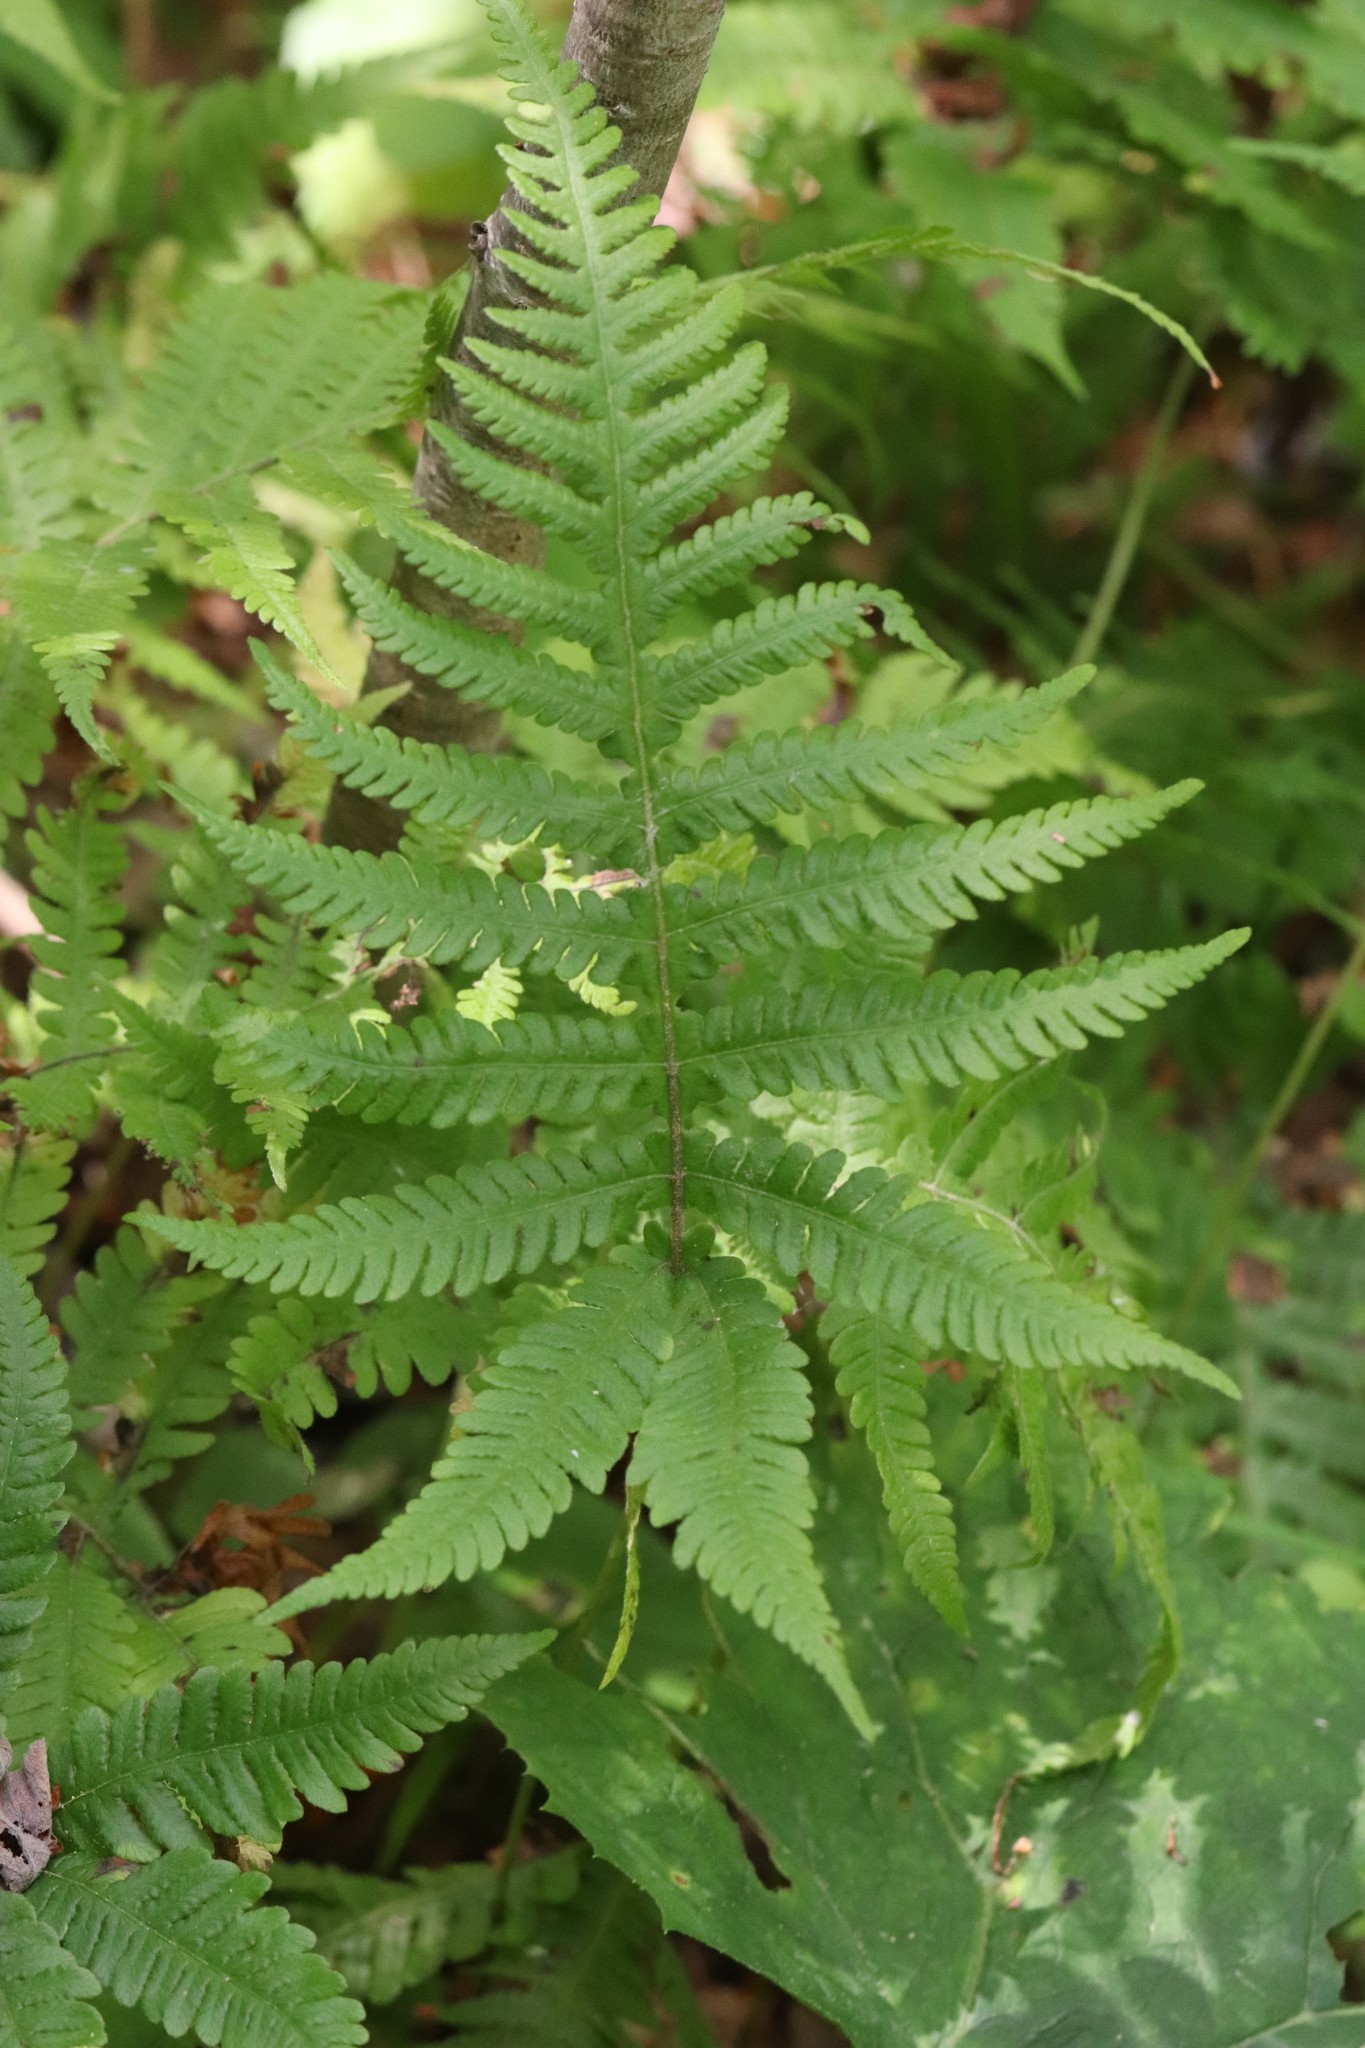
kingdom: Plantae
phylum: Tracheophyta
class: Polypodiopsida
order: Polypodiales
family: Thelypteridaceae
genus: Phegopteris
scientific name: Phegopteris connectilis
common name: Beech fern
